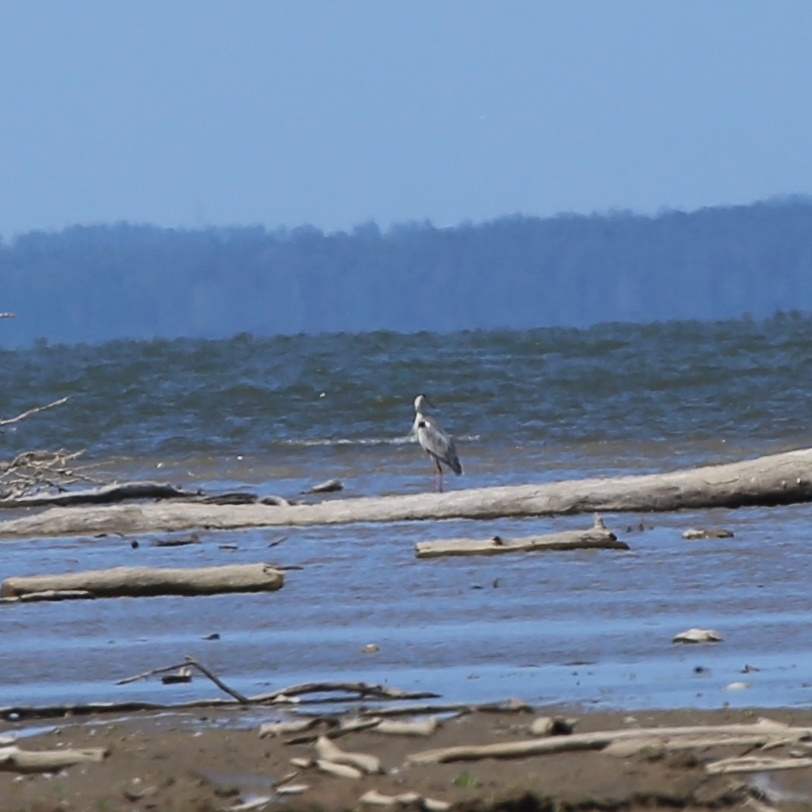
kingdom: Animalia
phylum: Chordata
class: Aves
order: Pelecaniformes
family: Ardeidae
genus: Ardea
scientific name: Ardea cinerea
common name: Grey heron
